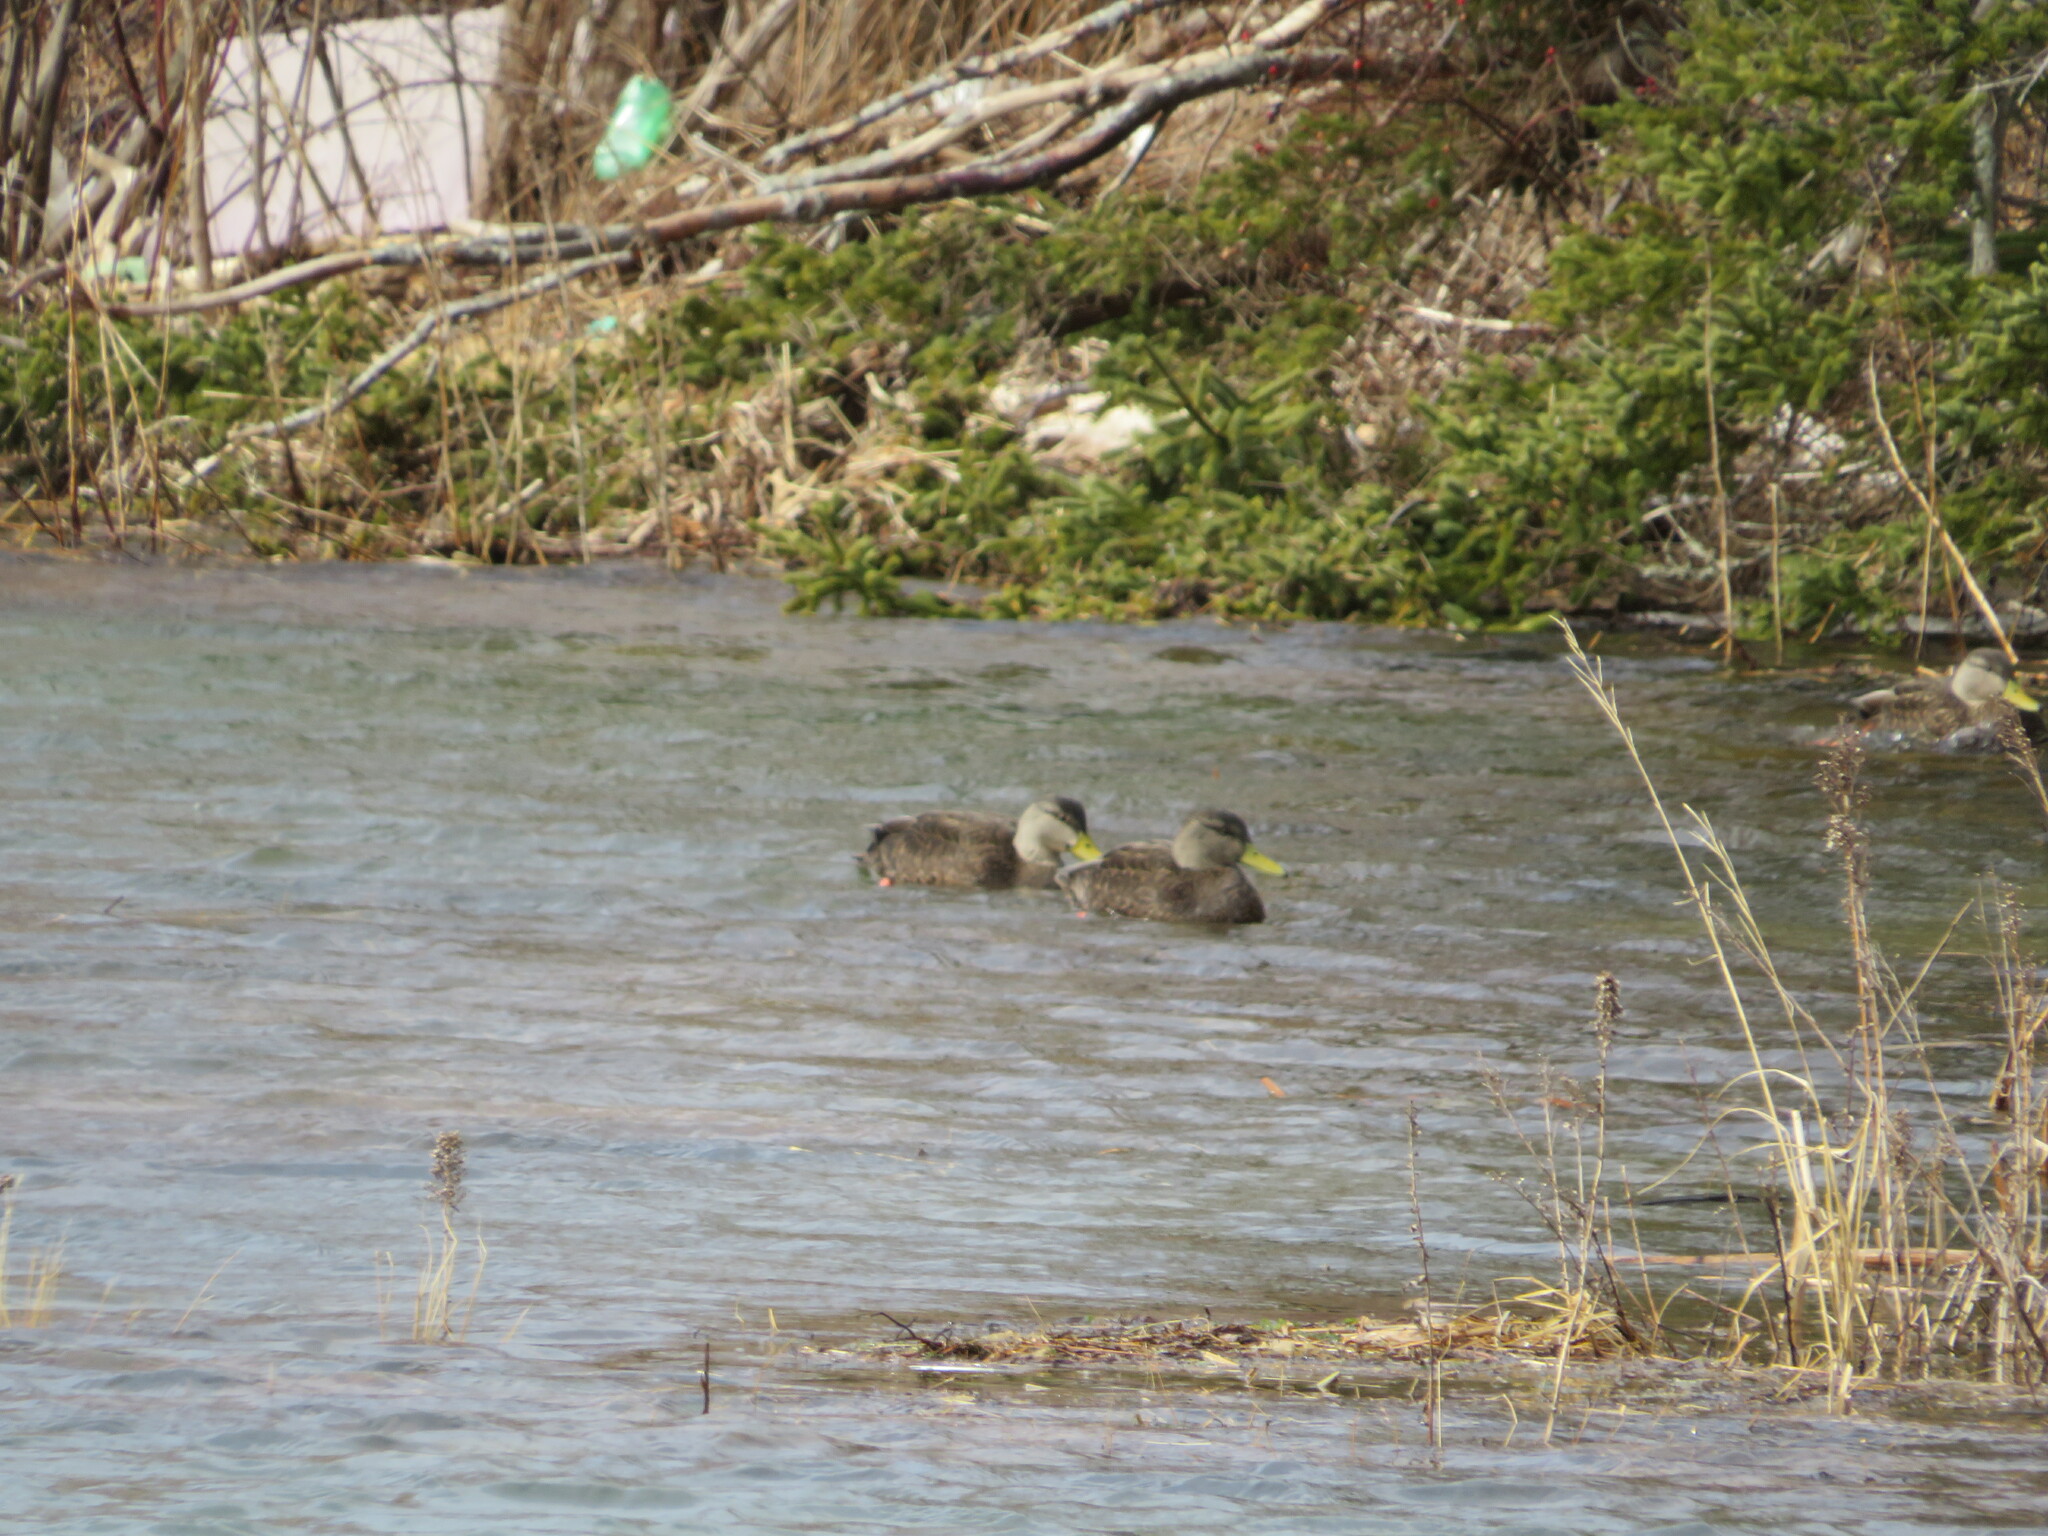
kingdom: Animalia
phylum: Chordata
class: Aves
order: Anseriformes
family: Anatidae
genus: Anas
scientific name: Anas rubripes
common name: American black duck
